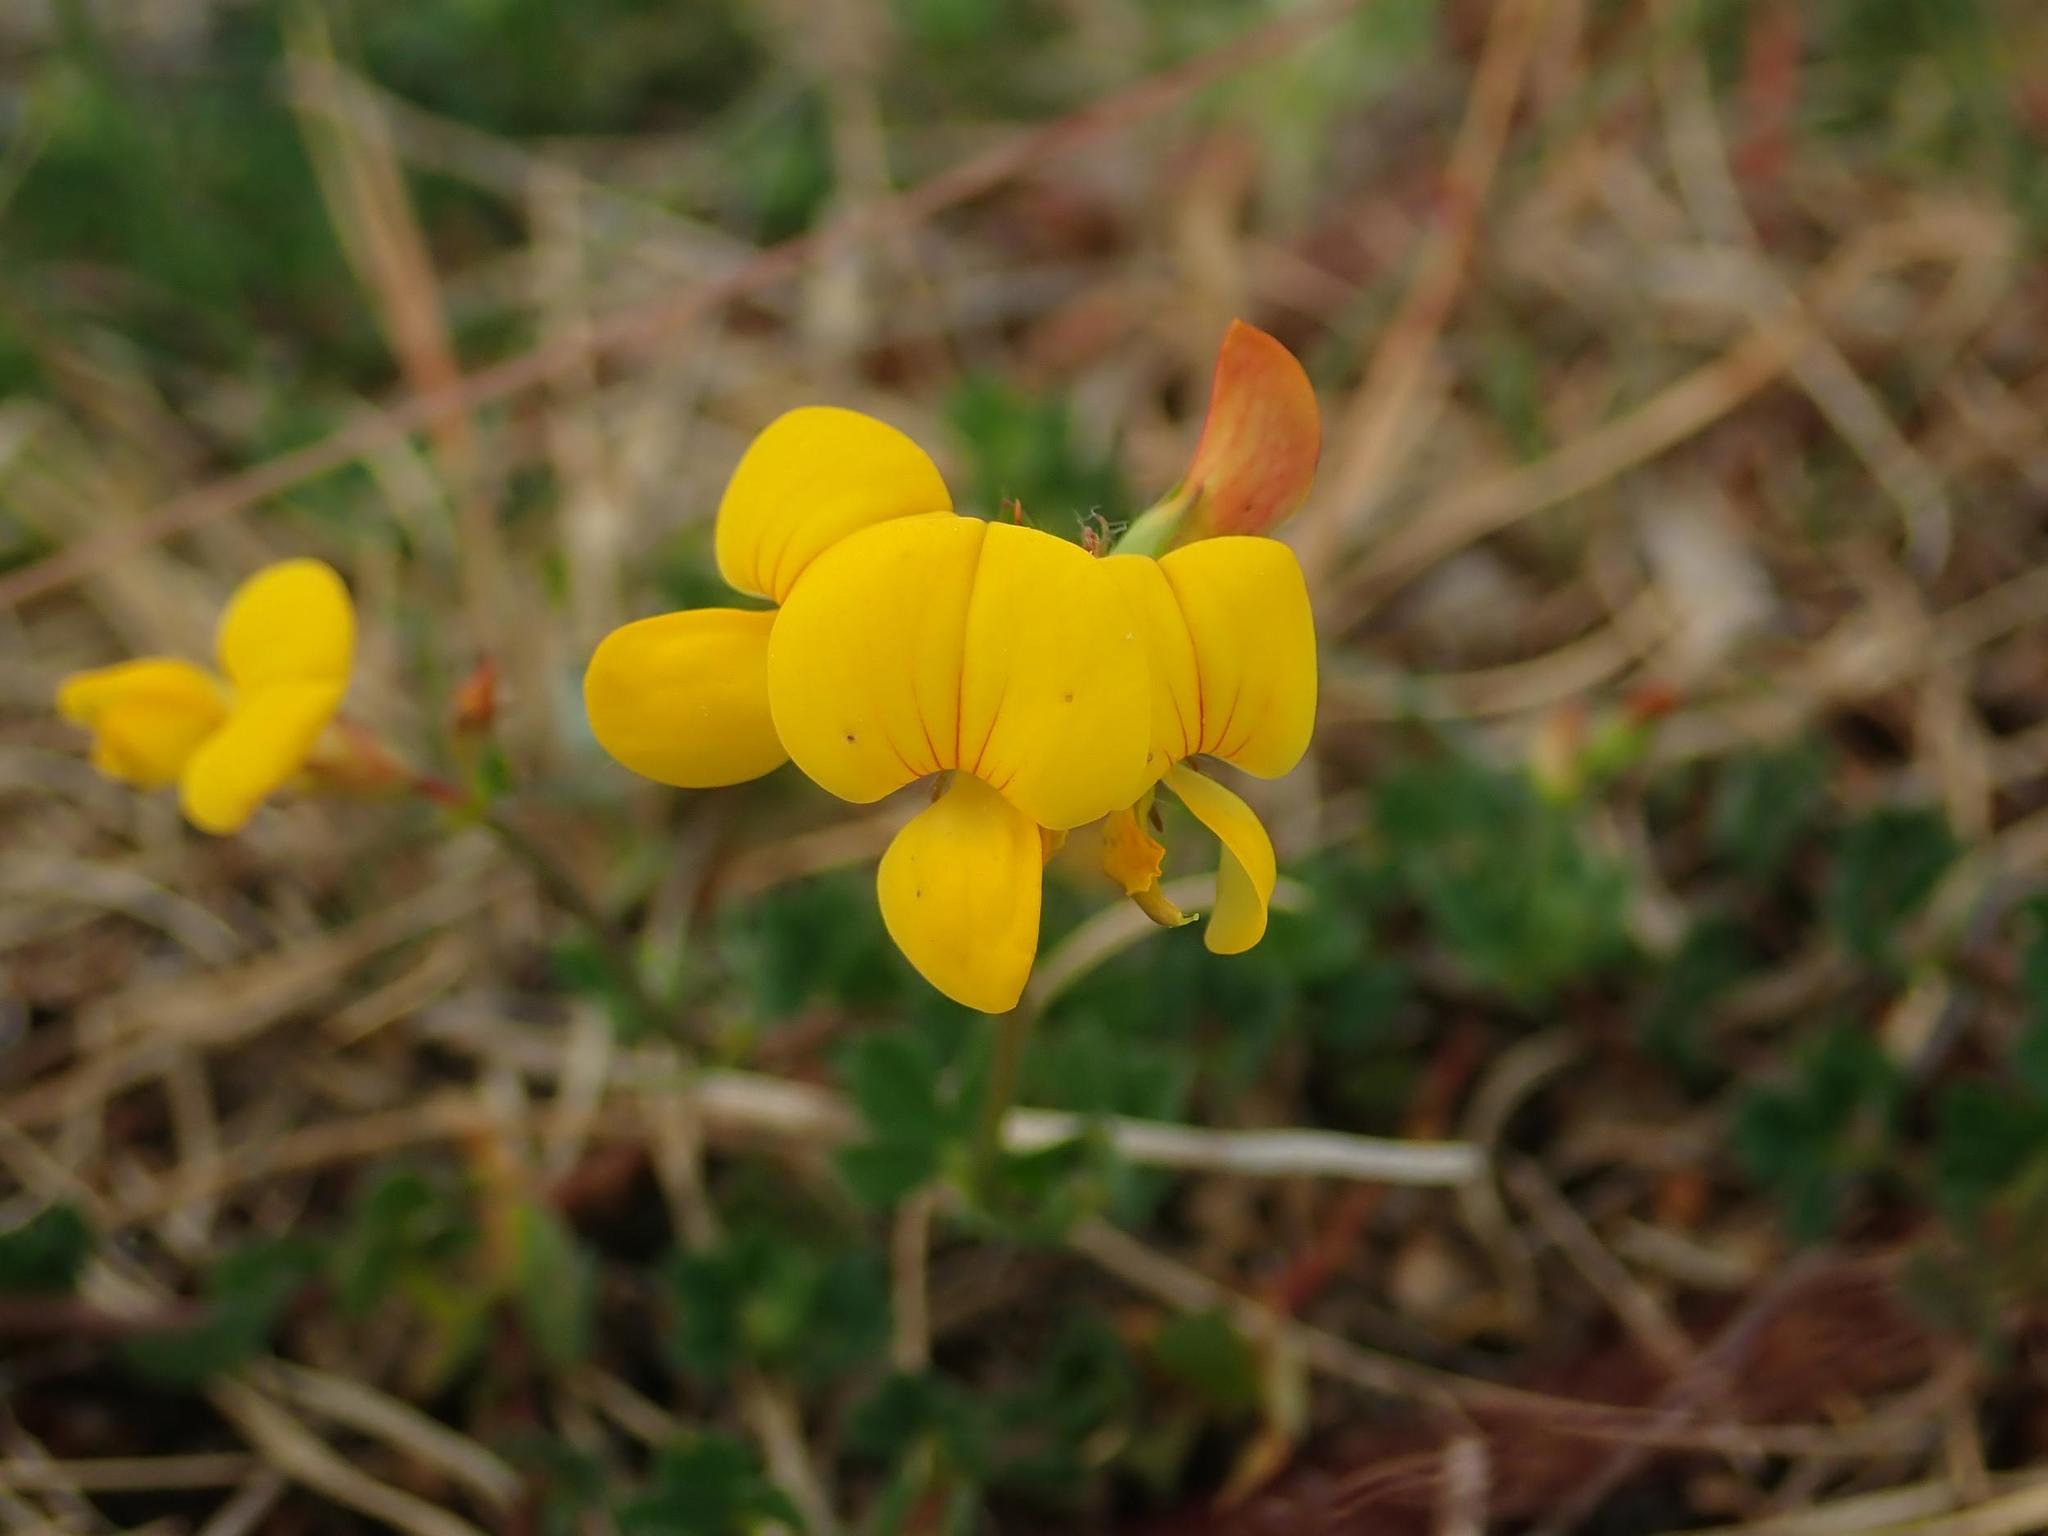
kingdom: Plantae
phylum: Tracheophyta
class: Magnoliopsida
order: Fabales
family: Fabaceae
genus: Lotus
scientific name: Lotus corniculatus
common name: Common bird's-foot-trefoil
